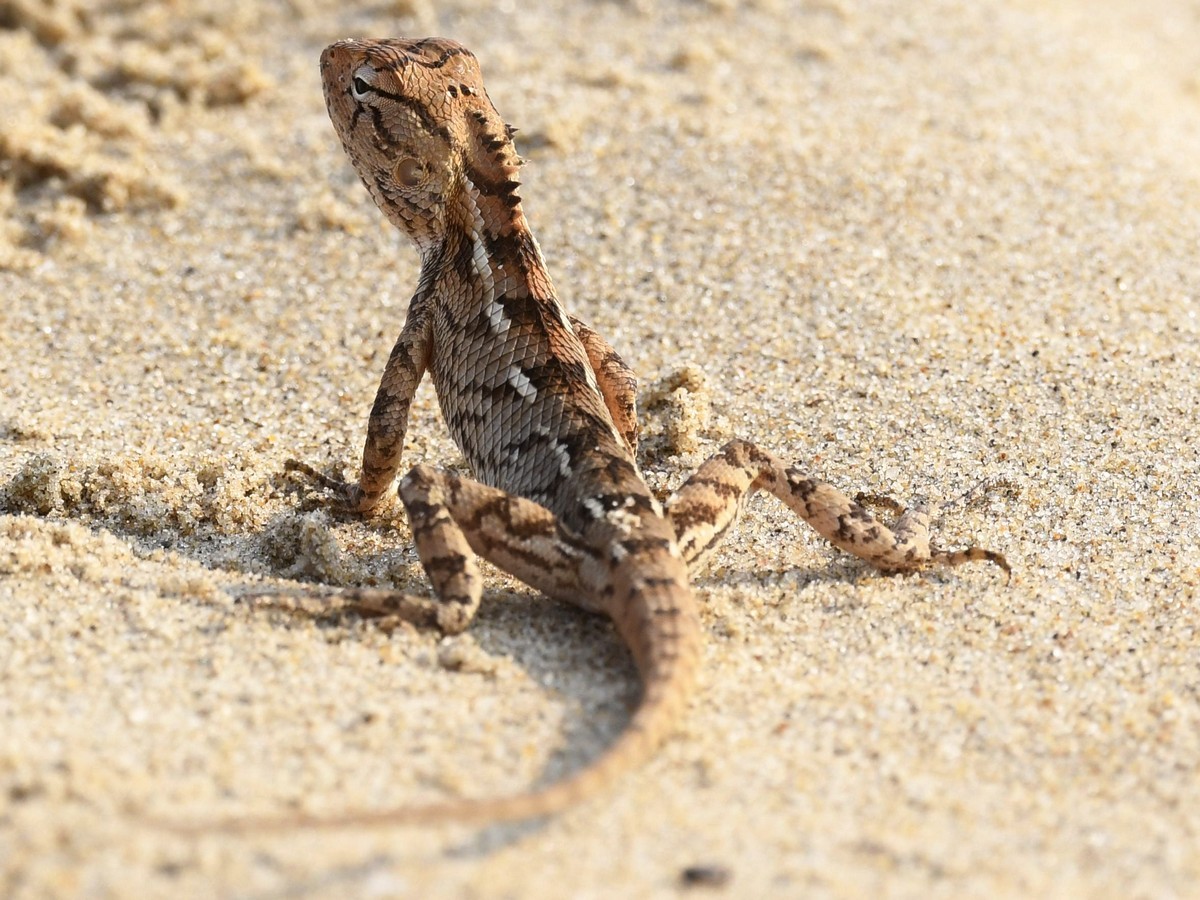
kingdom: Animalia
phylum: Chordata
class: Squamata
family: Agamidae
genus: Calotes
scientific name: Calotes versicolor
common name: Oriental garden lizard
